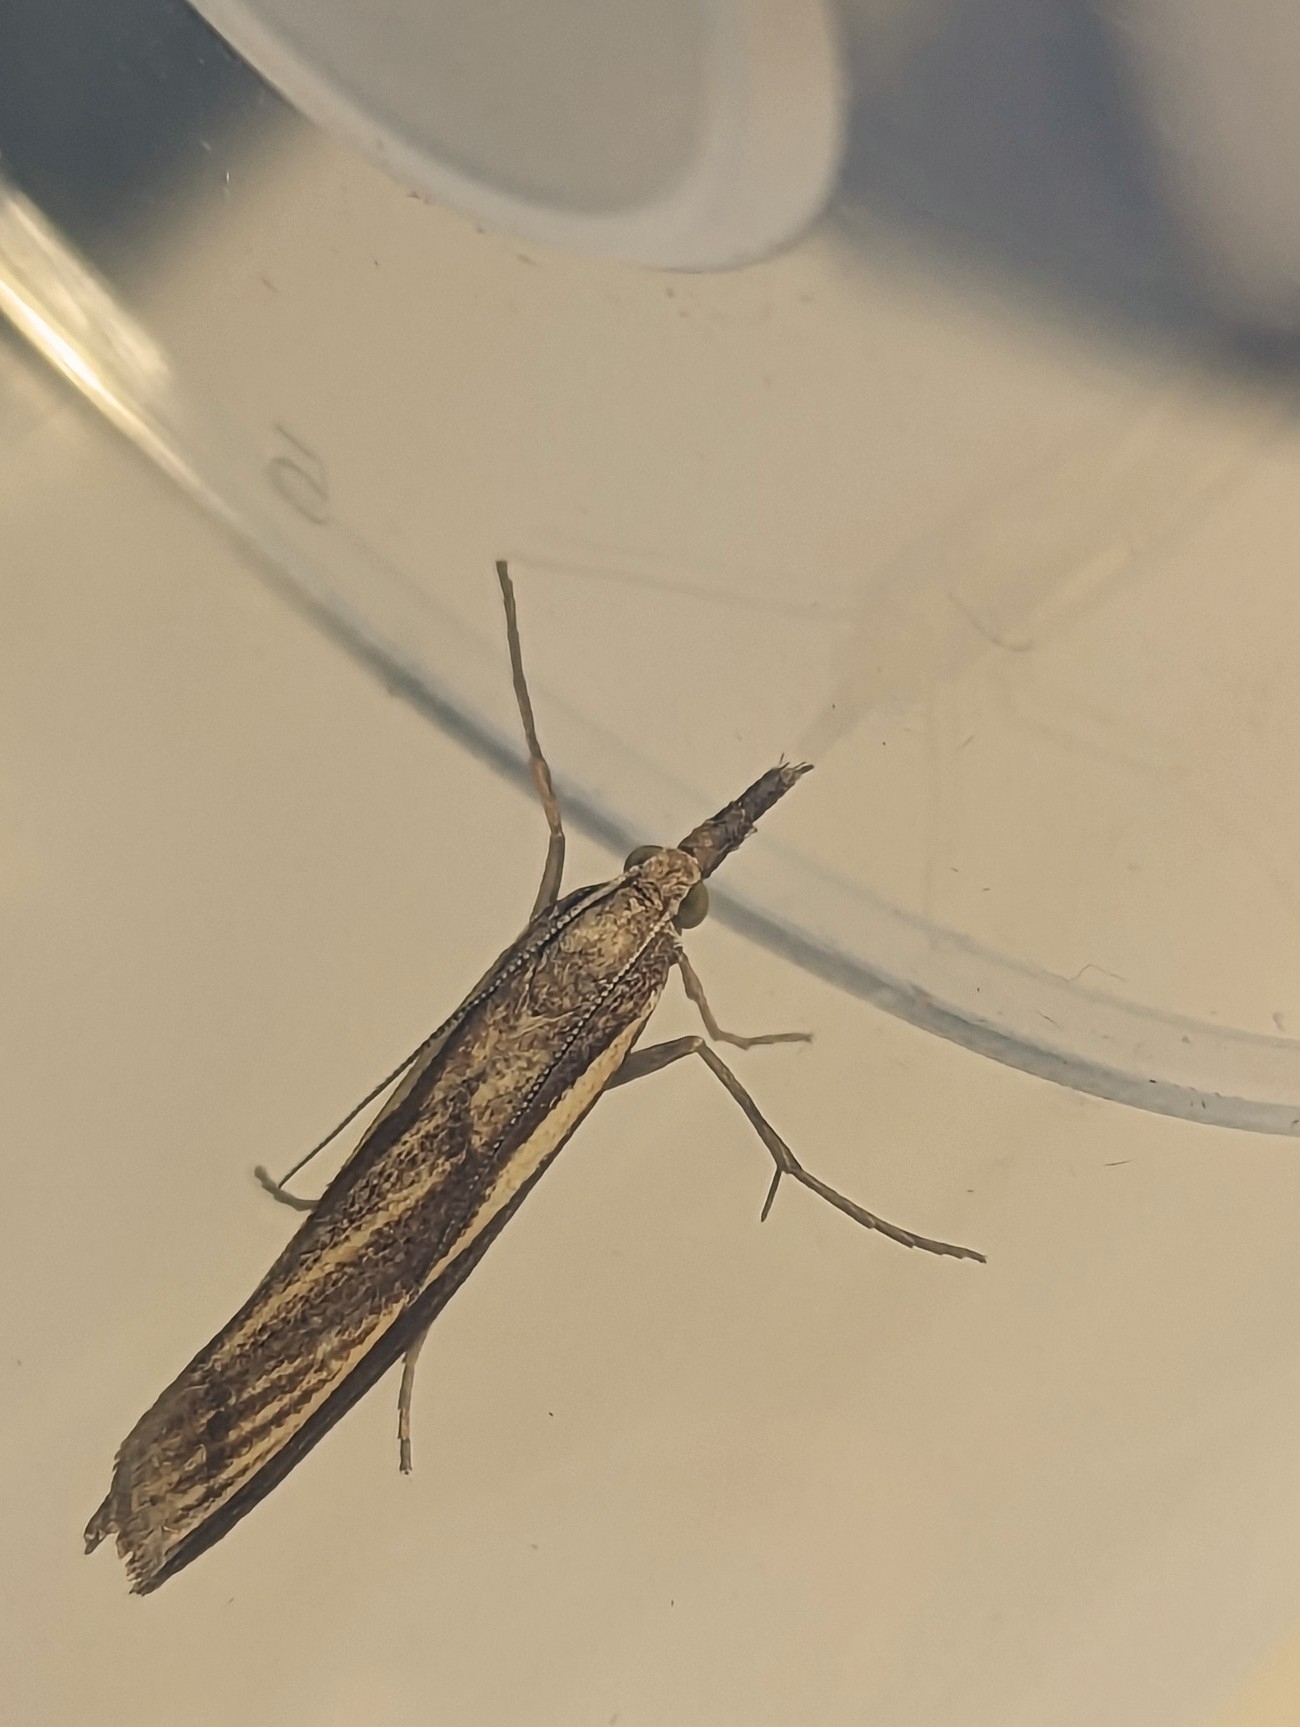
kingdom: Animalia
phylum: Arthropoda
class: Insecta
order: Lepidoptera
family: Crambidae
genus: Agriphila
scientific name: Agriphila tristellus
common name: Common grass-veneer
